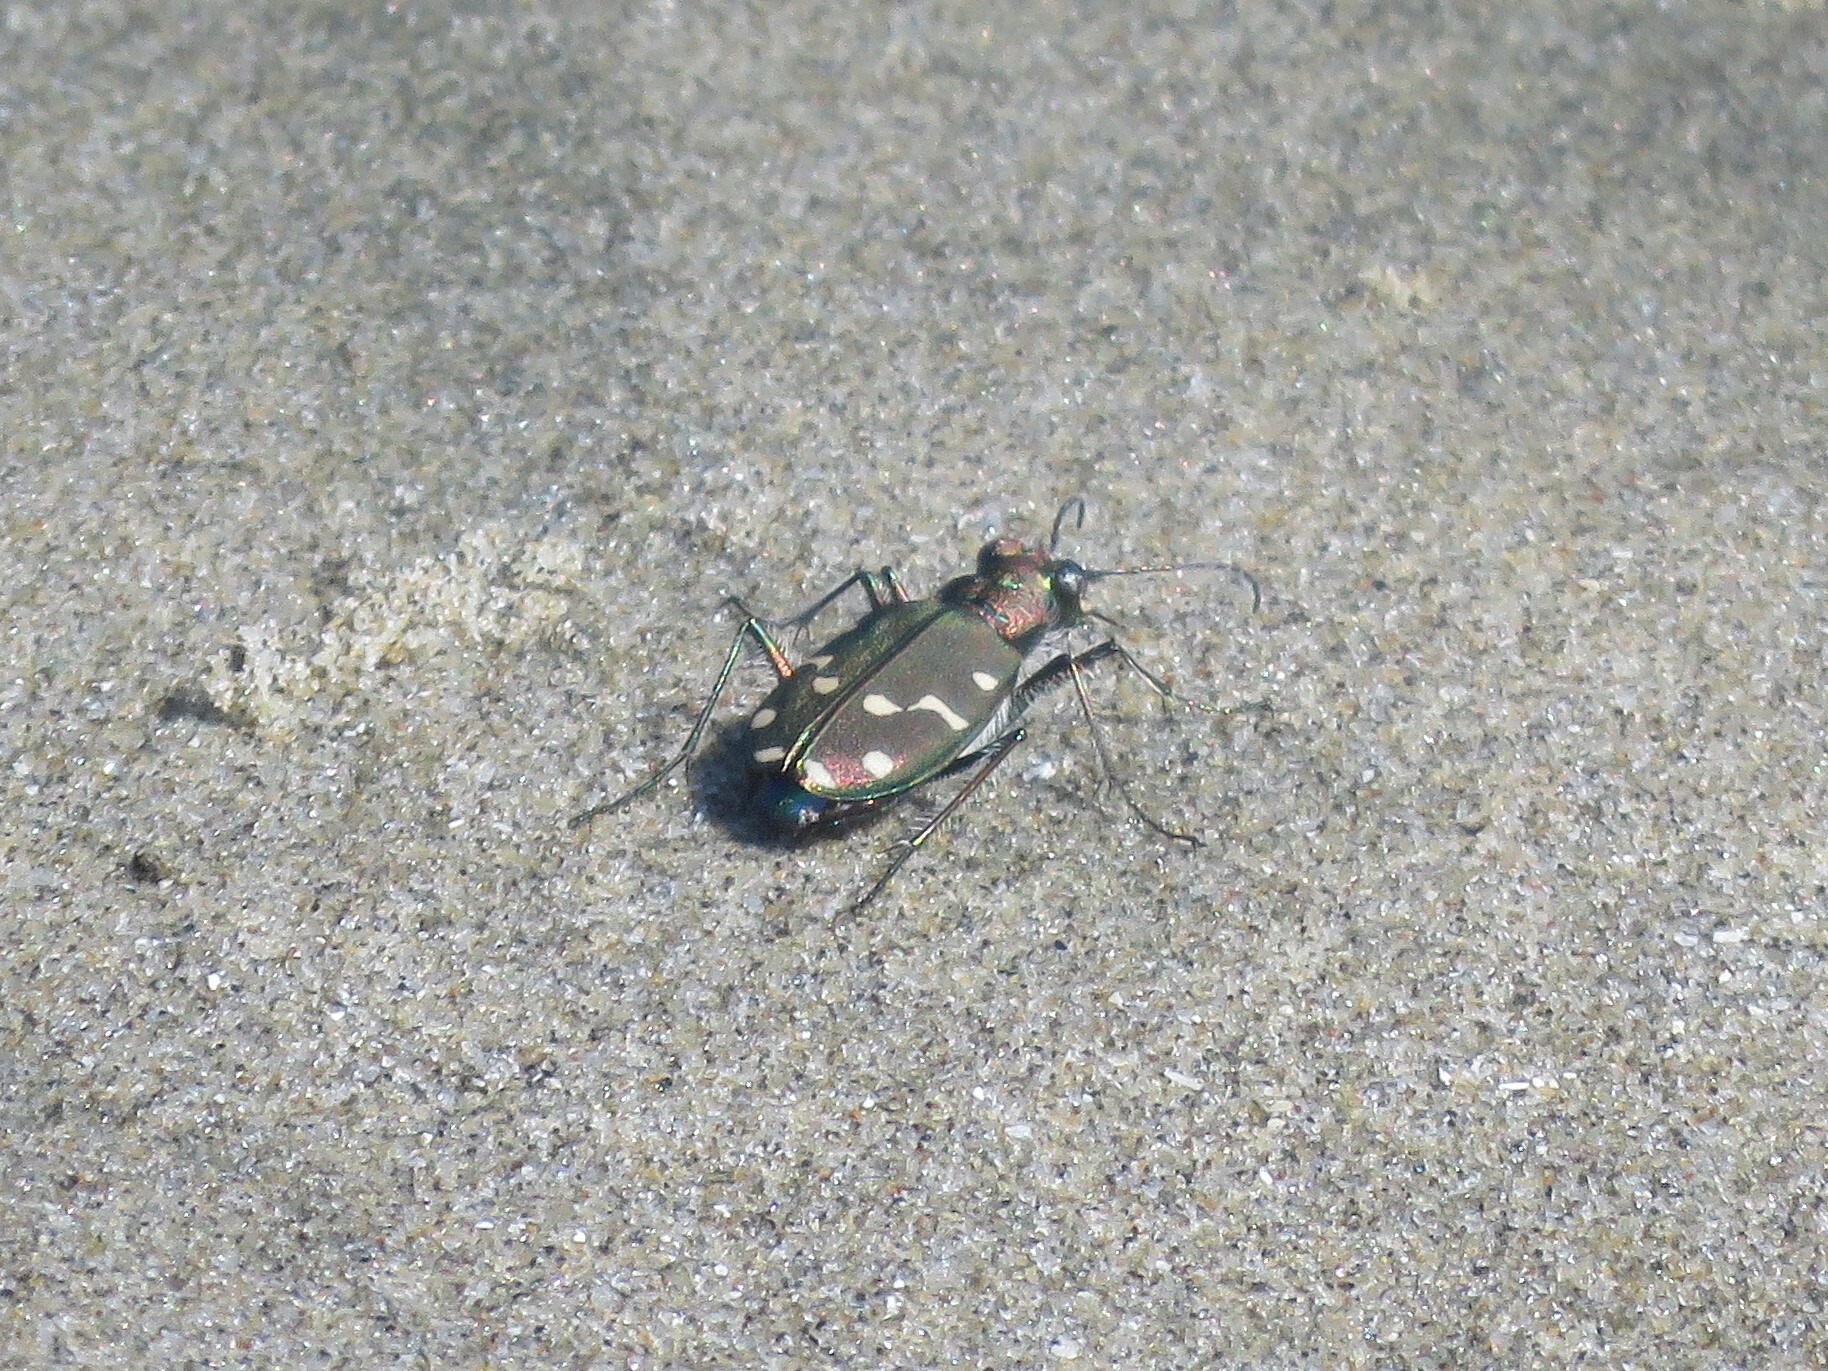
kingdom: Animalia
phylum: Arthropoda
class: Insecta
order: Coleoptera
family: Carabidae
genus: Cicindela
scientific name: Cicindela oregona
